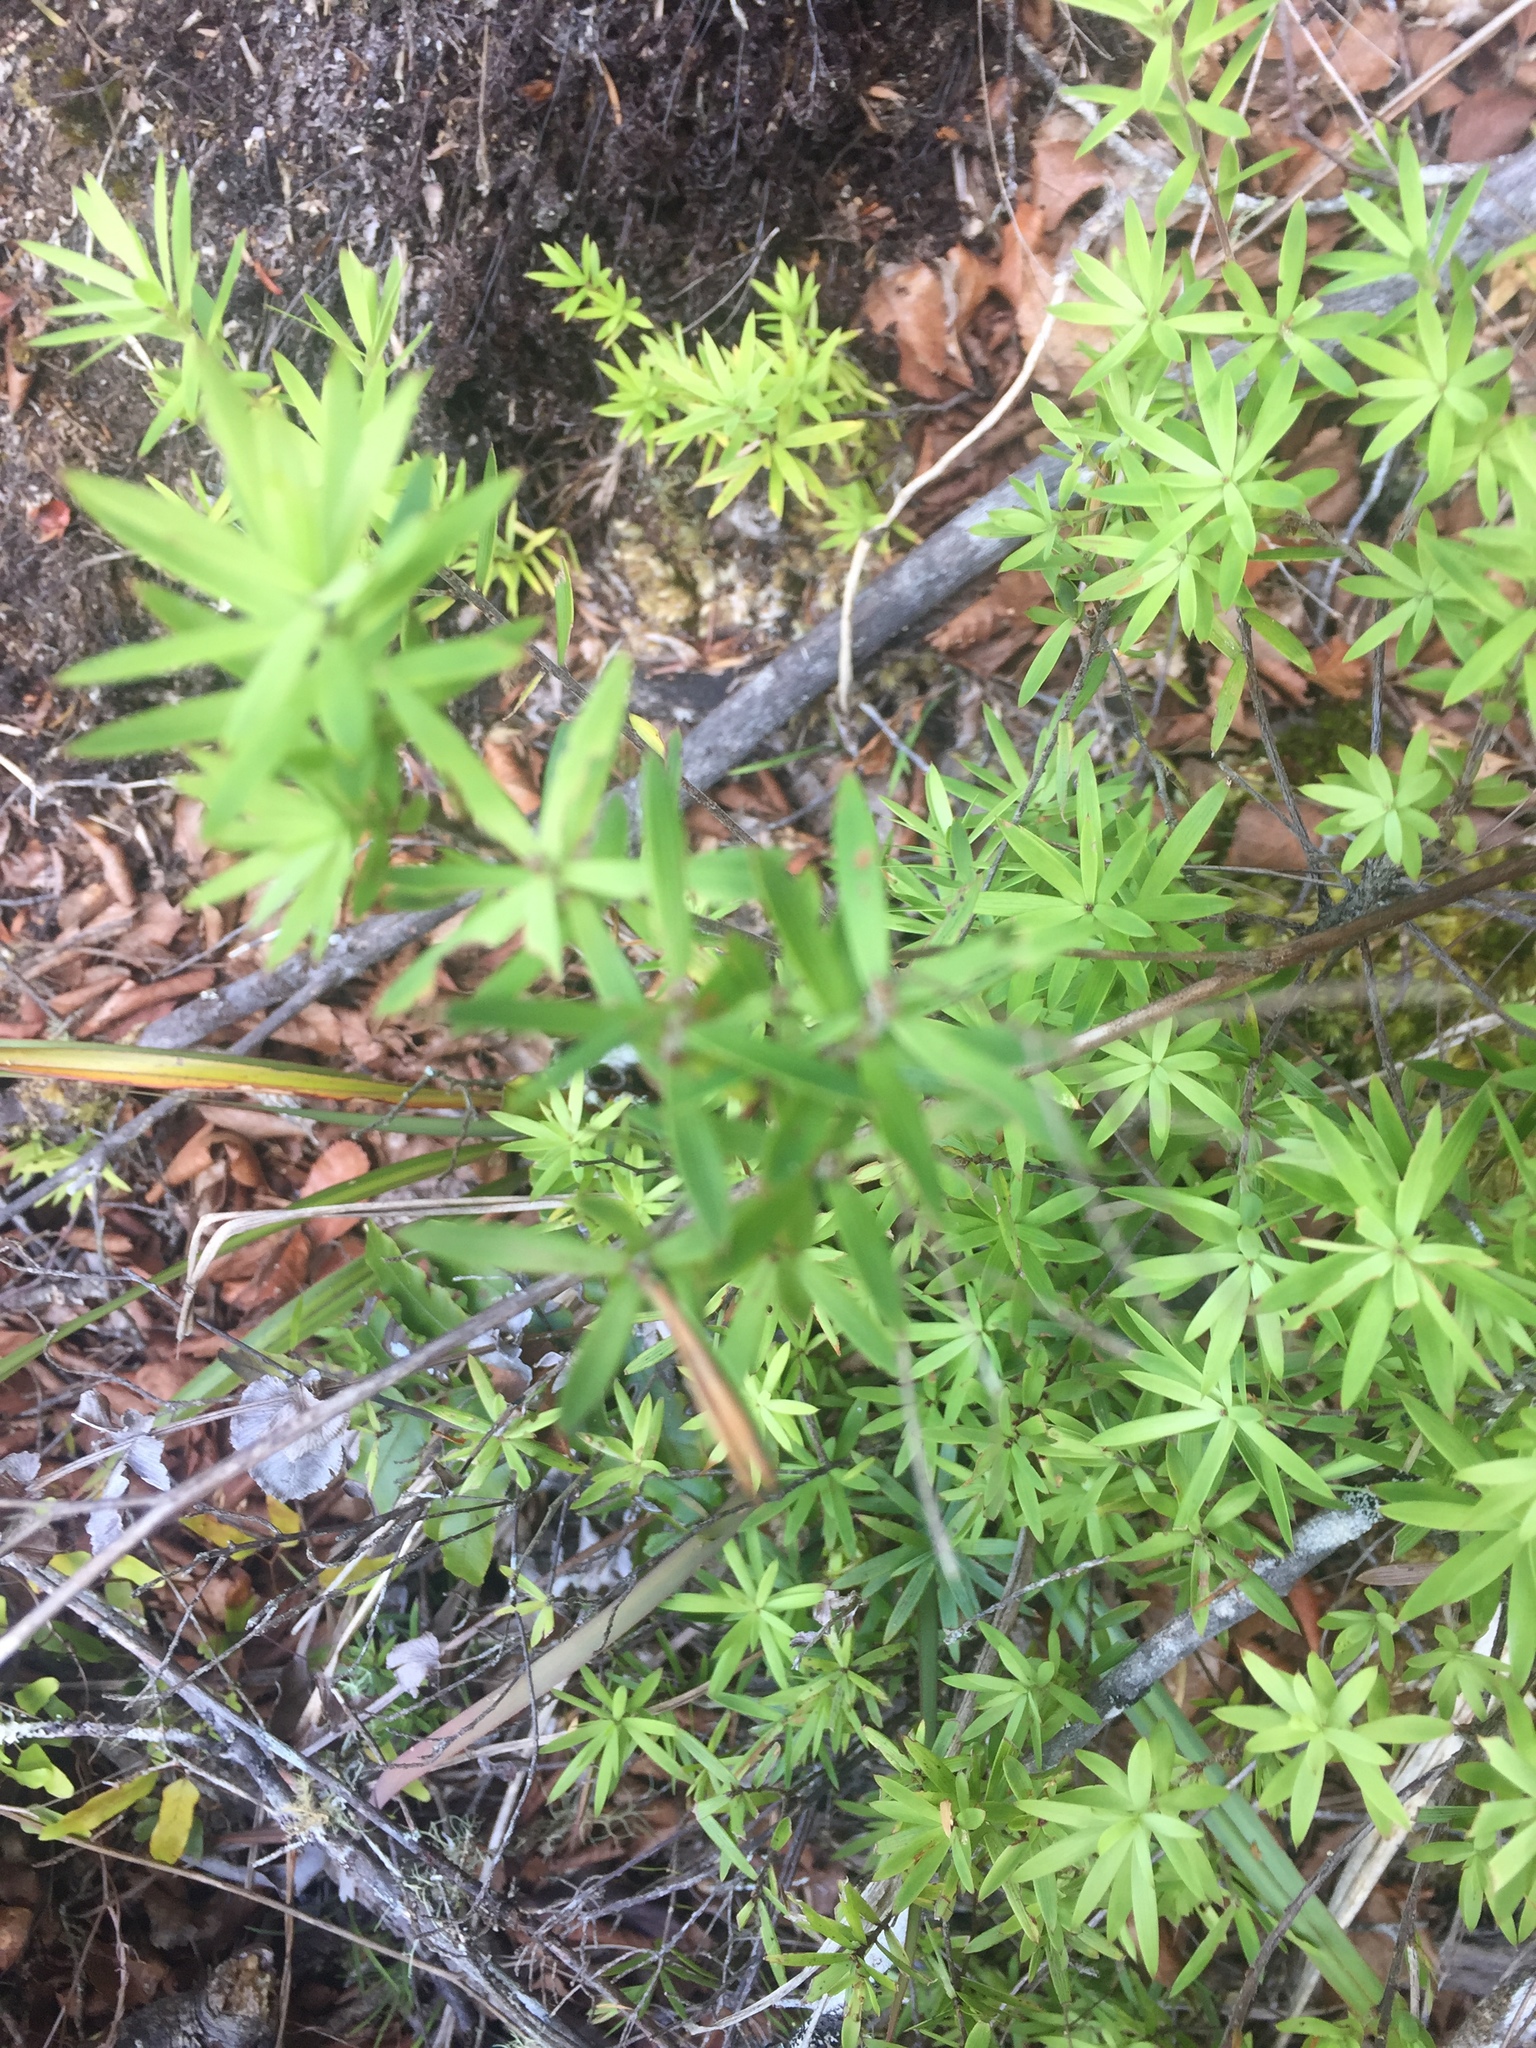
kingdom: Plantae
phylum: Tracheophyta
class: Magnoliopsida
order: Ericales
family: Ericaceae
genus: Leucopogon
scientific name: Leucopogon fasciculatus
